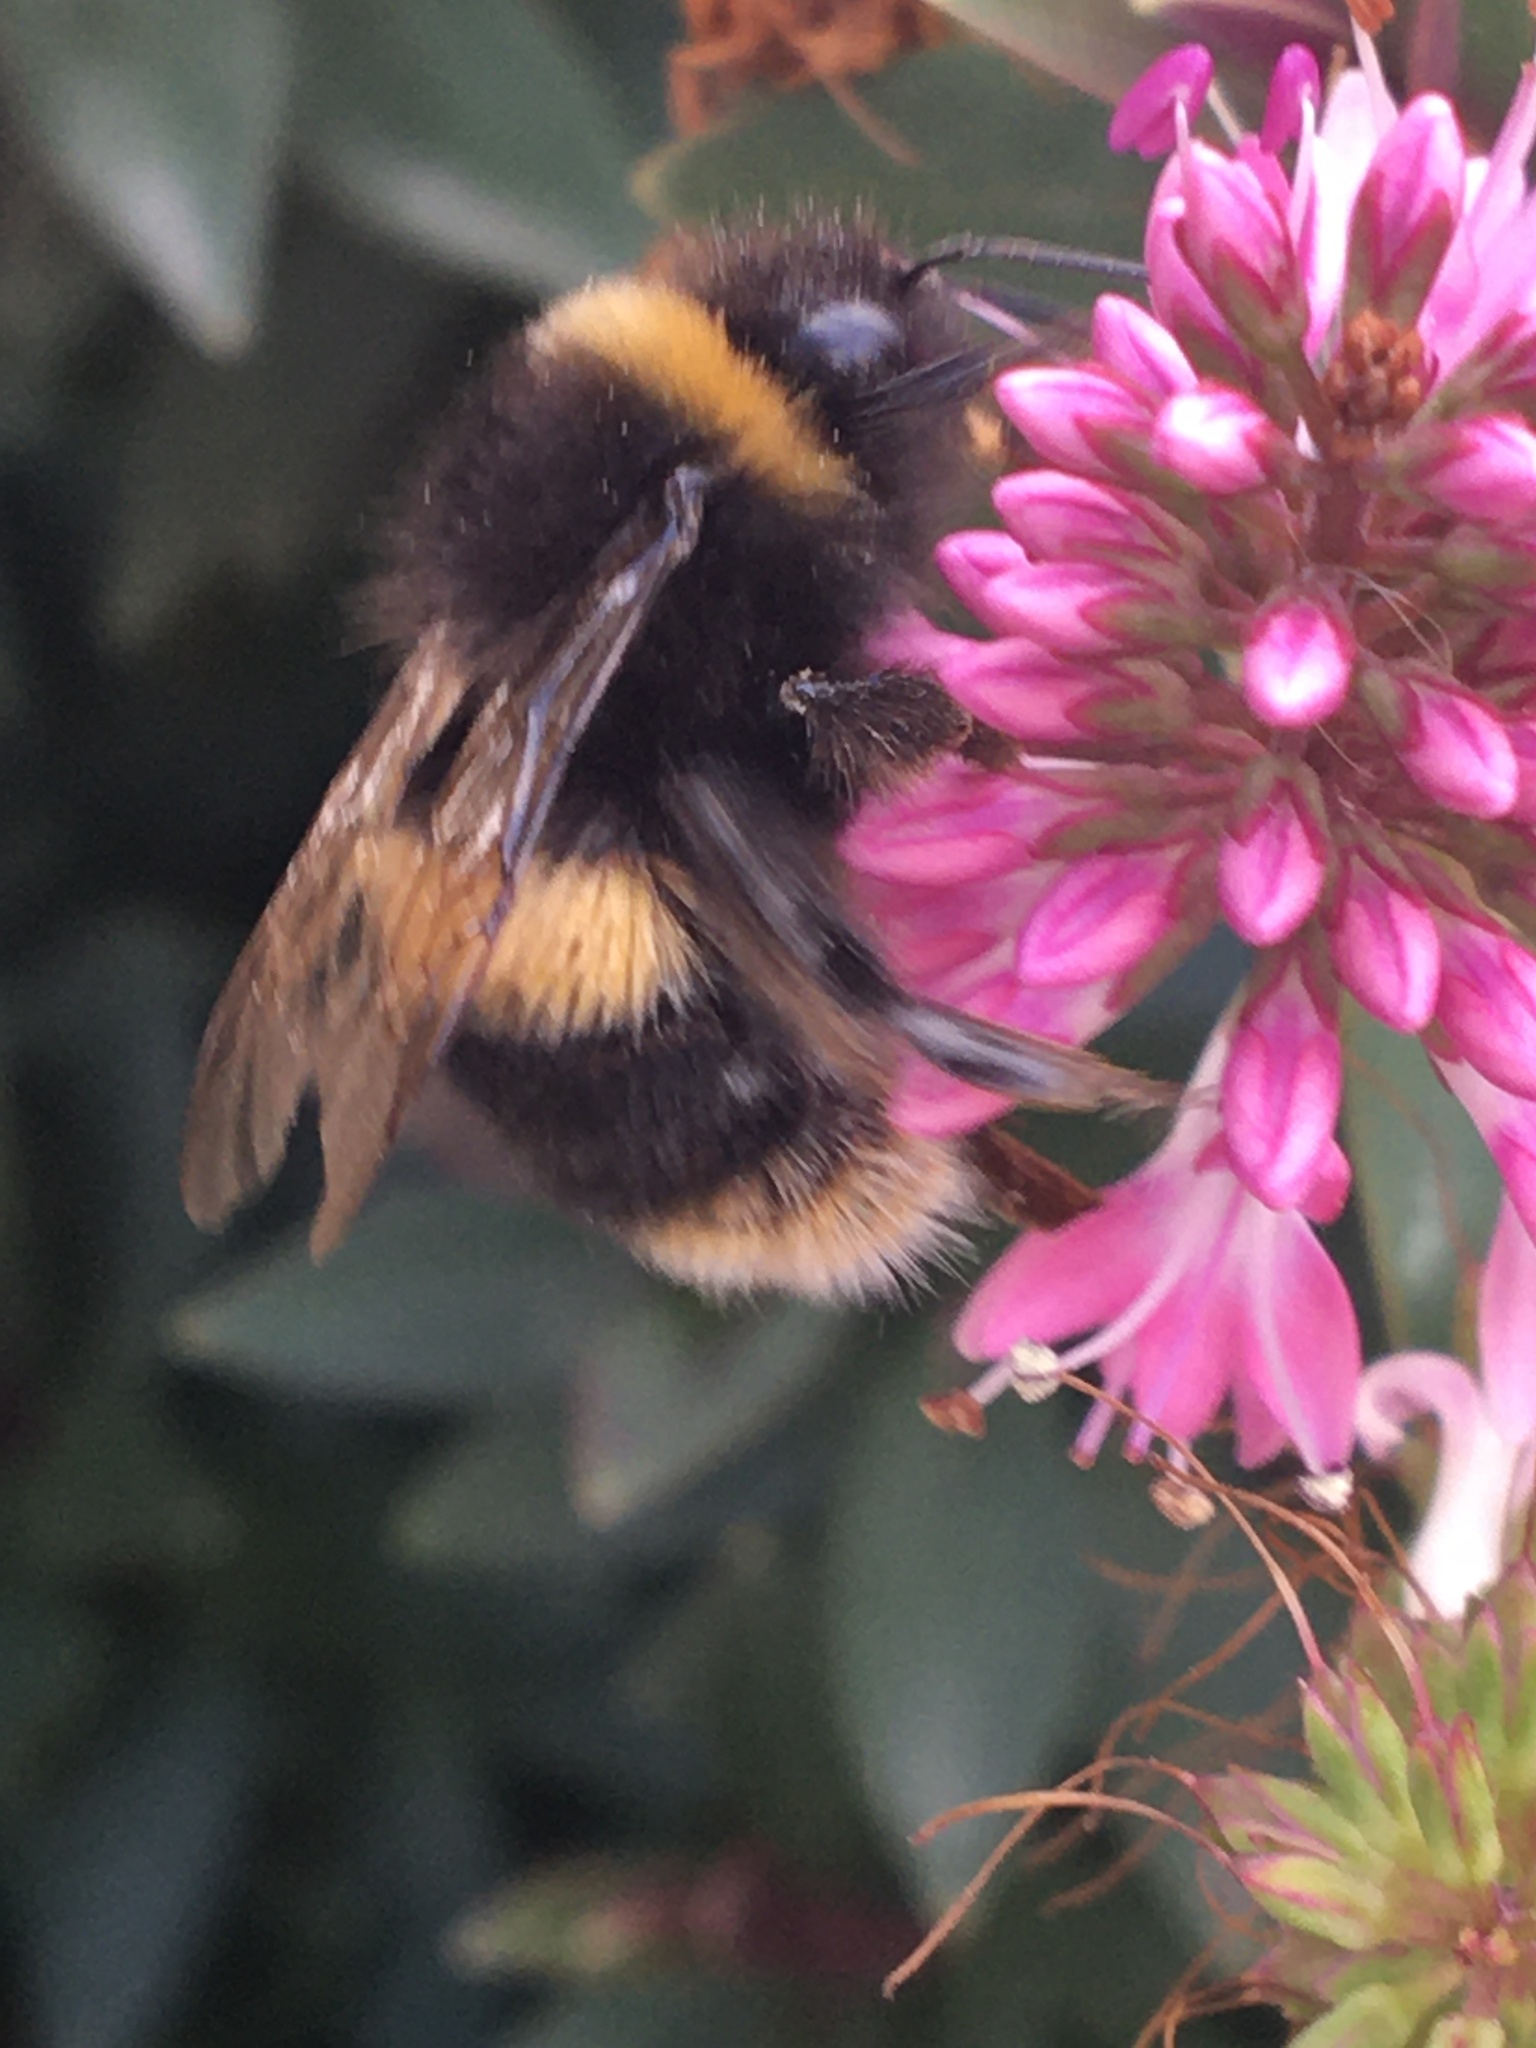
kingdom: Animalia
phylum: Arthropoda
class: Insecta
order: Hymenoptera
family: Apidae
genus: Bombus
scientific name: Bombus terrestris
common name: Buff-tailed bumblebee
